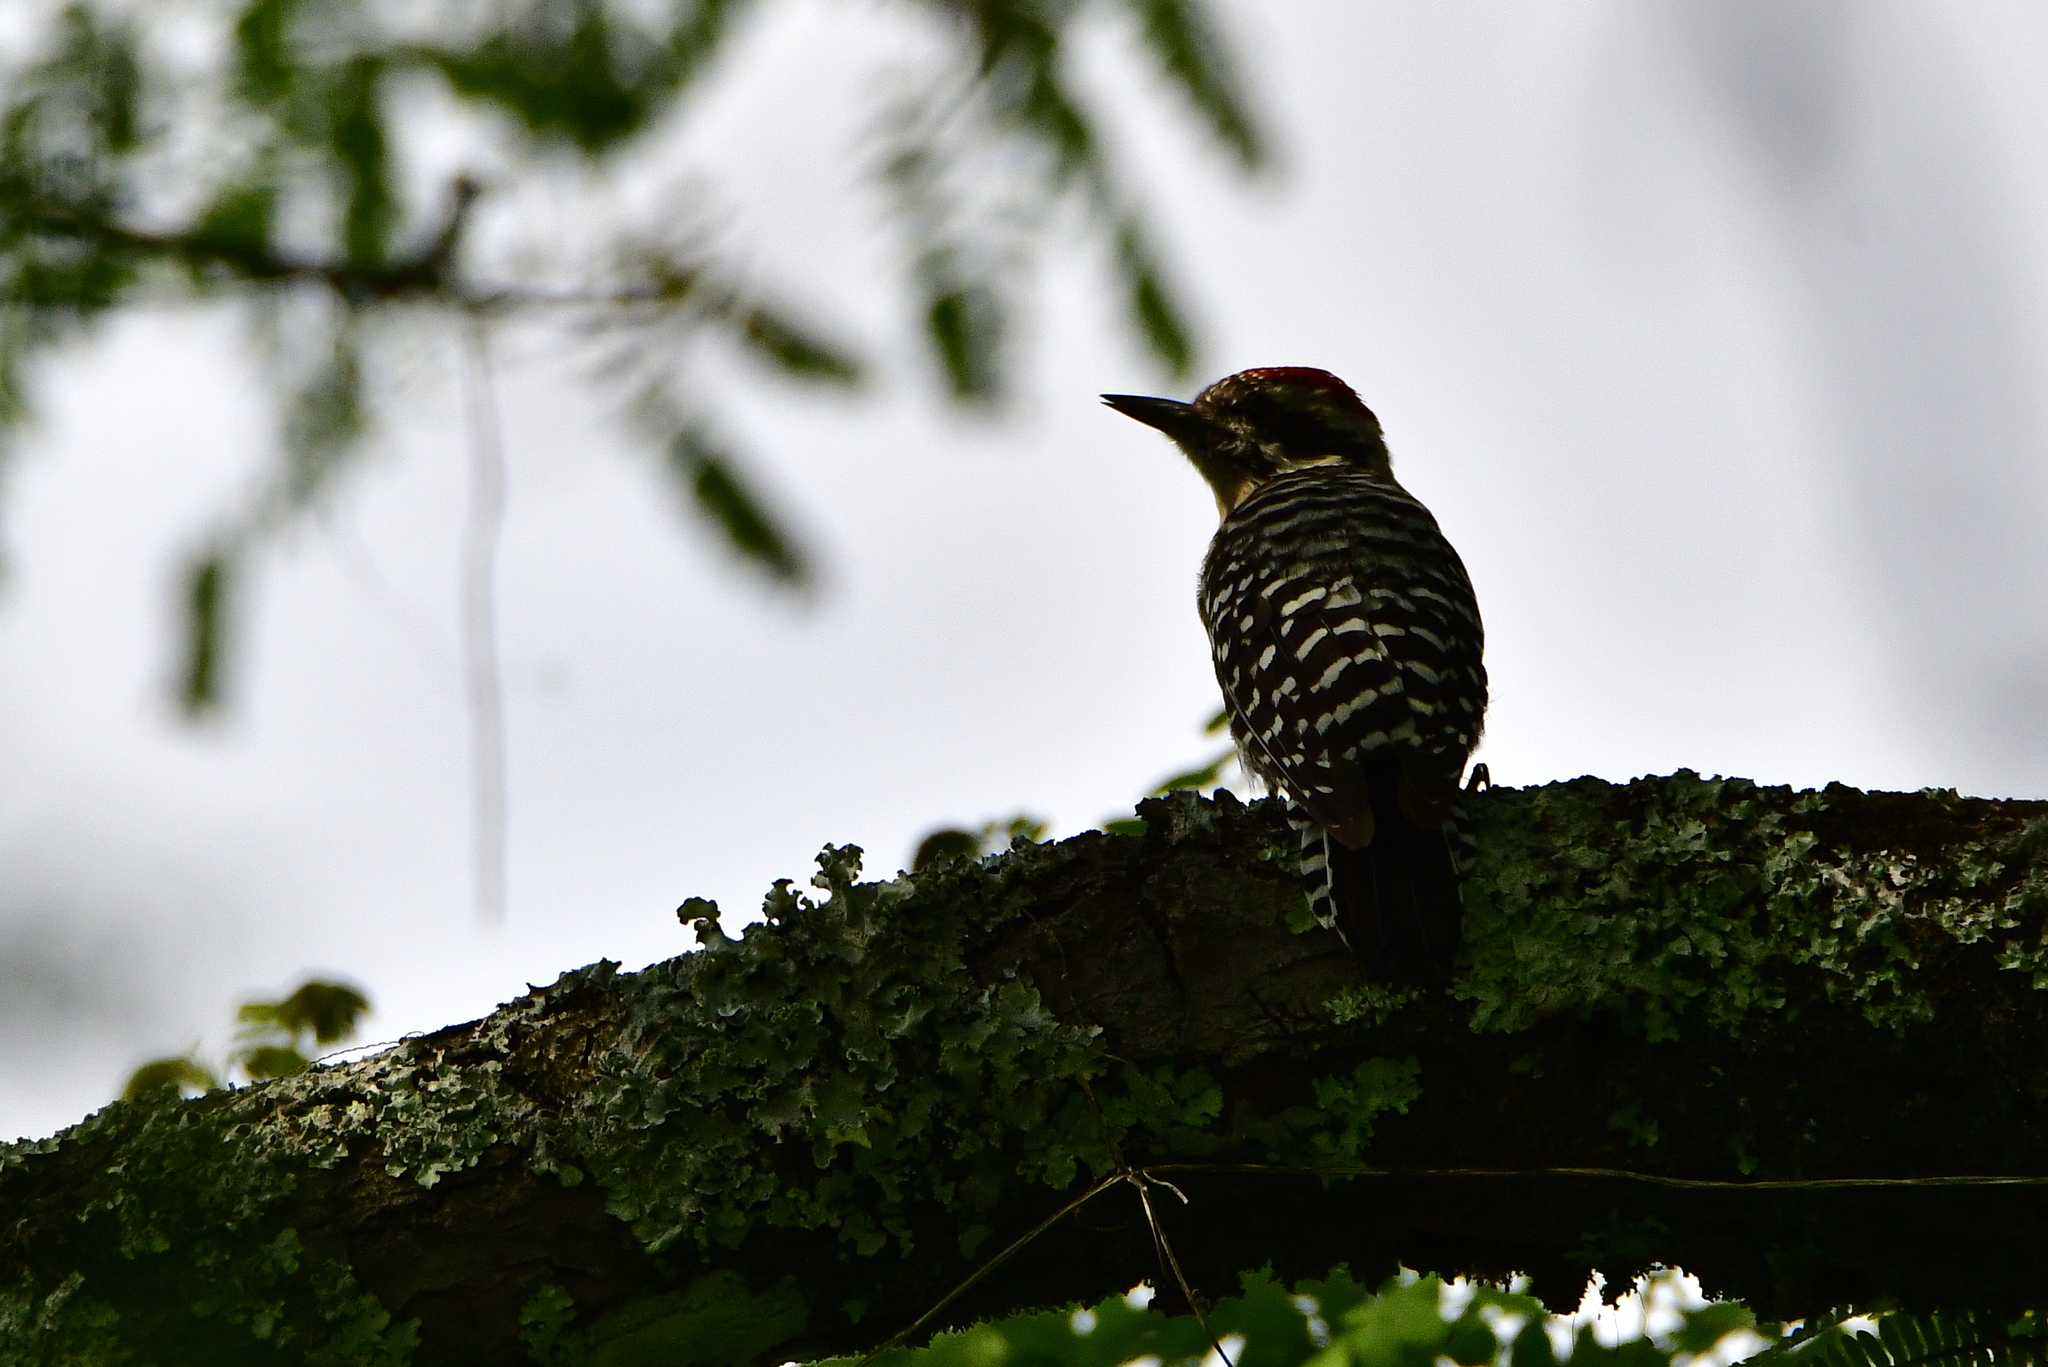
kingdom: Animalia
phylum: Chordata
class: Aves
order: Piciformes
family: Picidae
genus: Dryobates
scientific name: Dryobates scalaris
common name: Ladder-backed woodpecker
